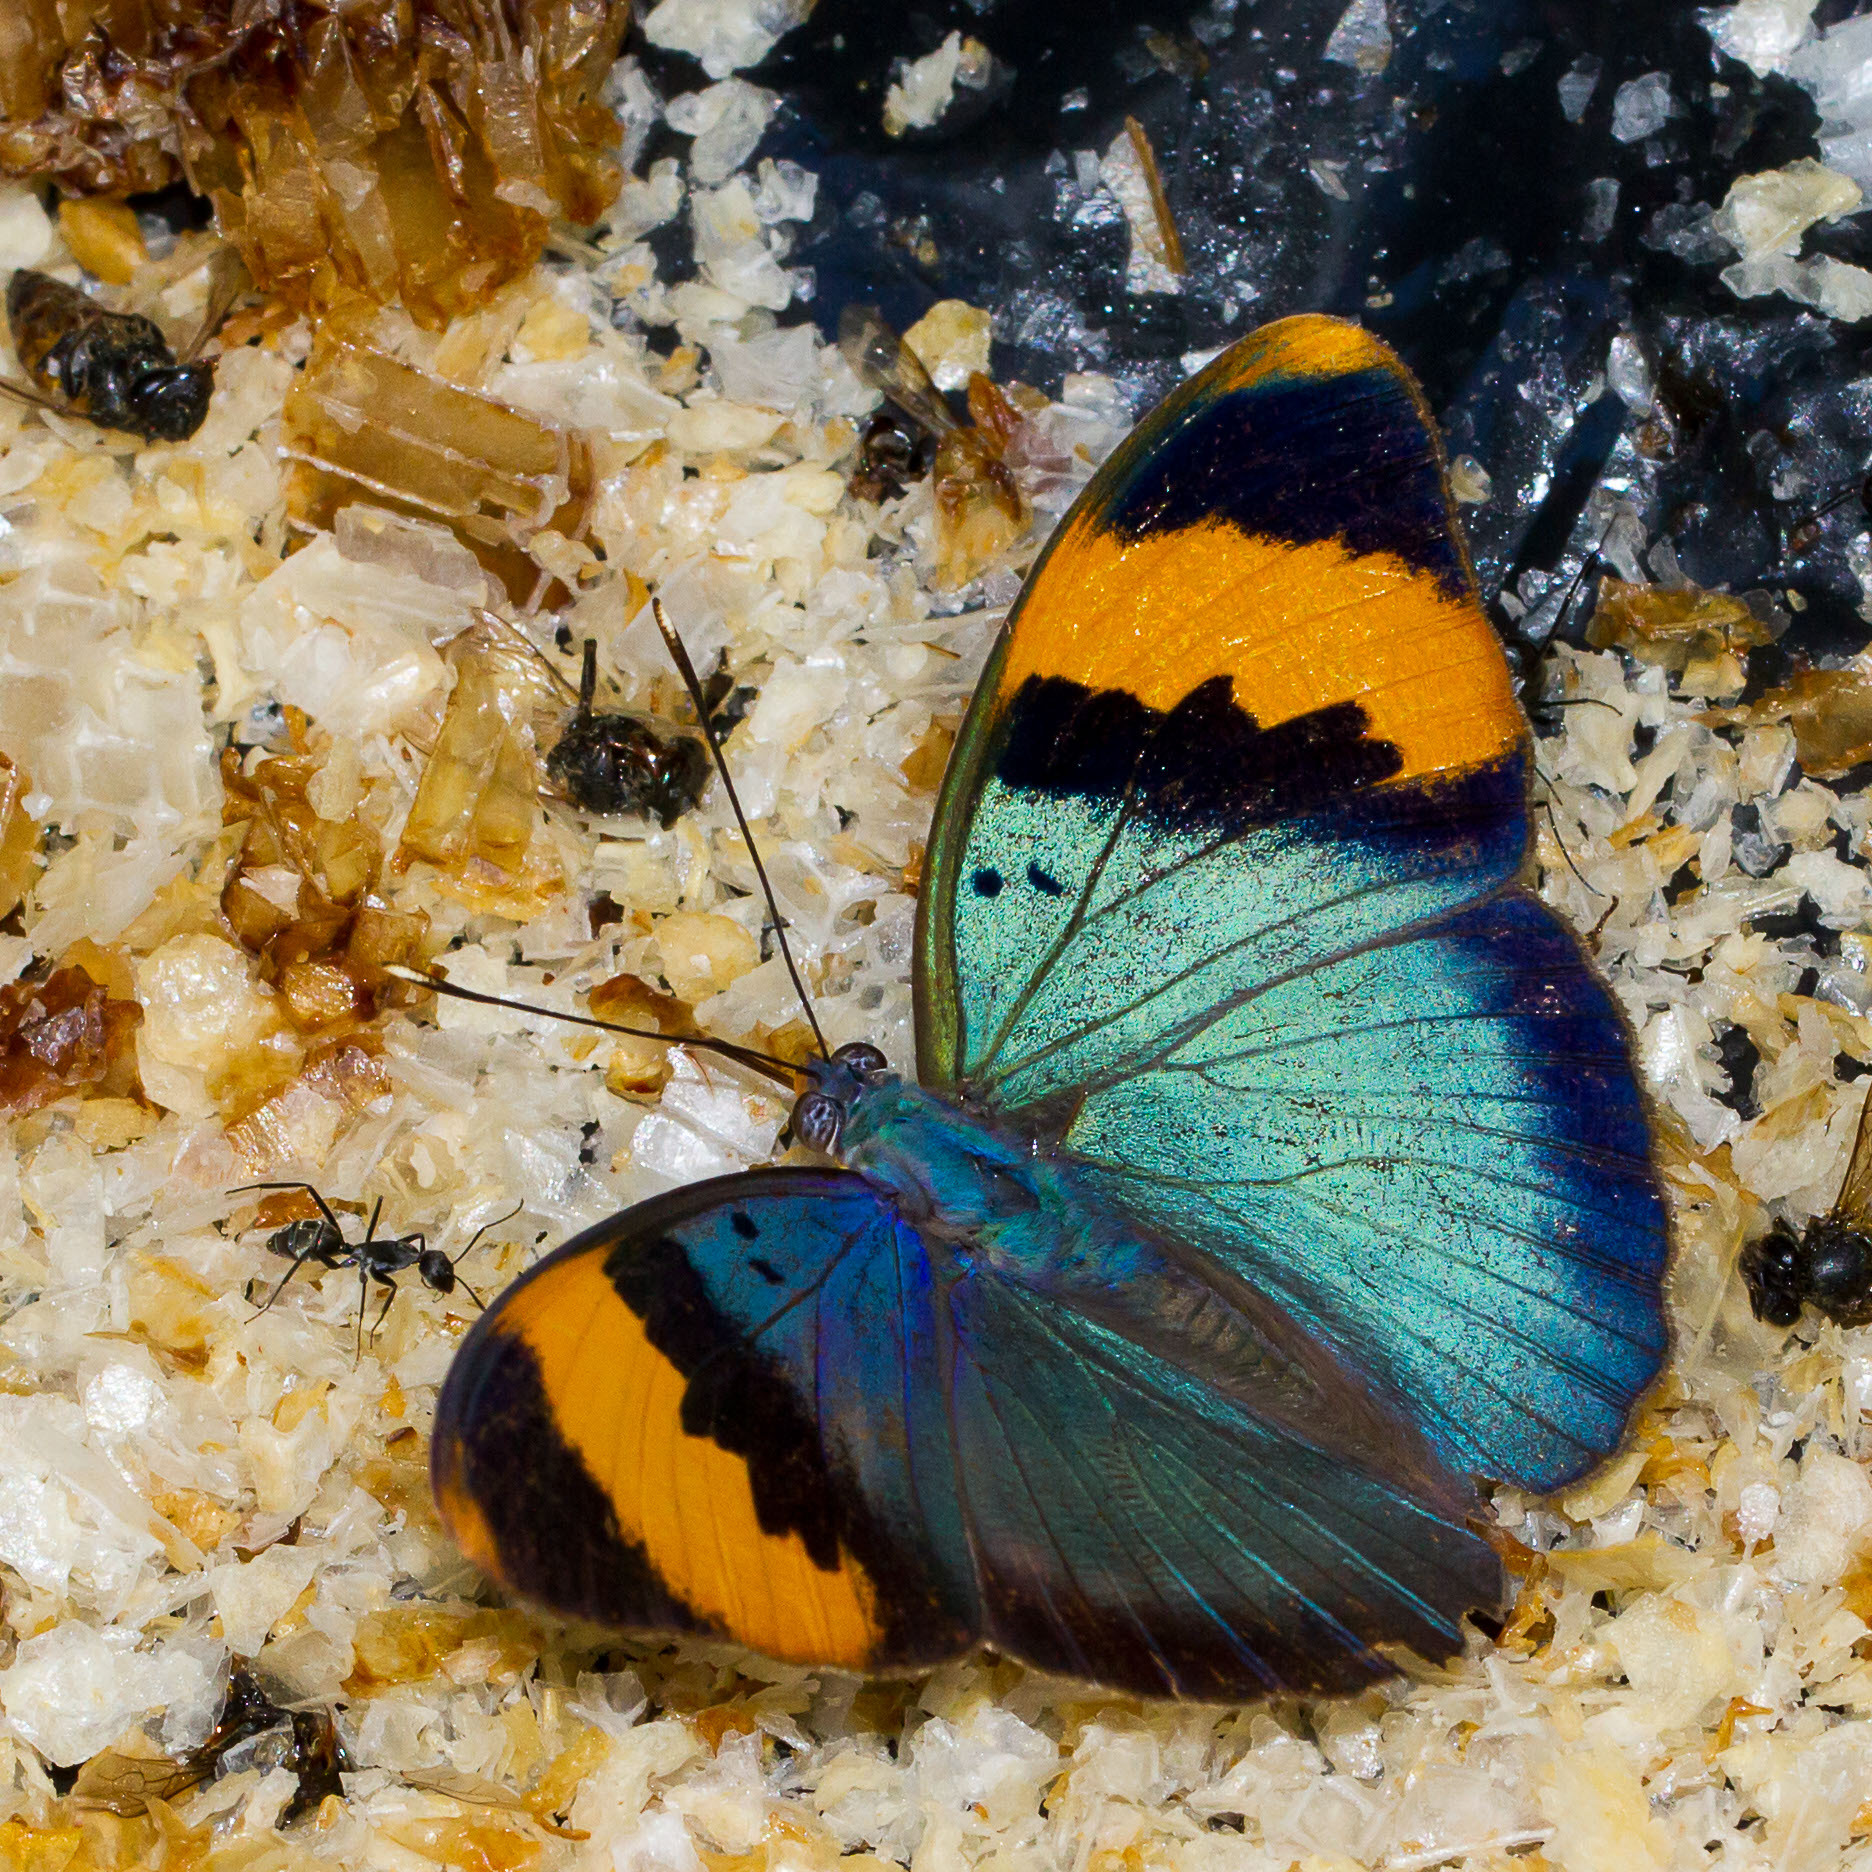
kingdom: Animalia
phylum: Arthropoda
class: Insecta
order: Lepidoptera
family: Nymphalidae
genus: Euphaedra
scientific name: Euphaedra neophron
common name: Gold-banded forester
